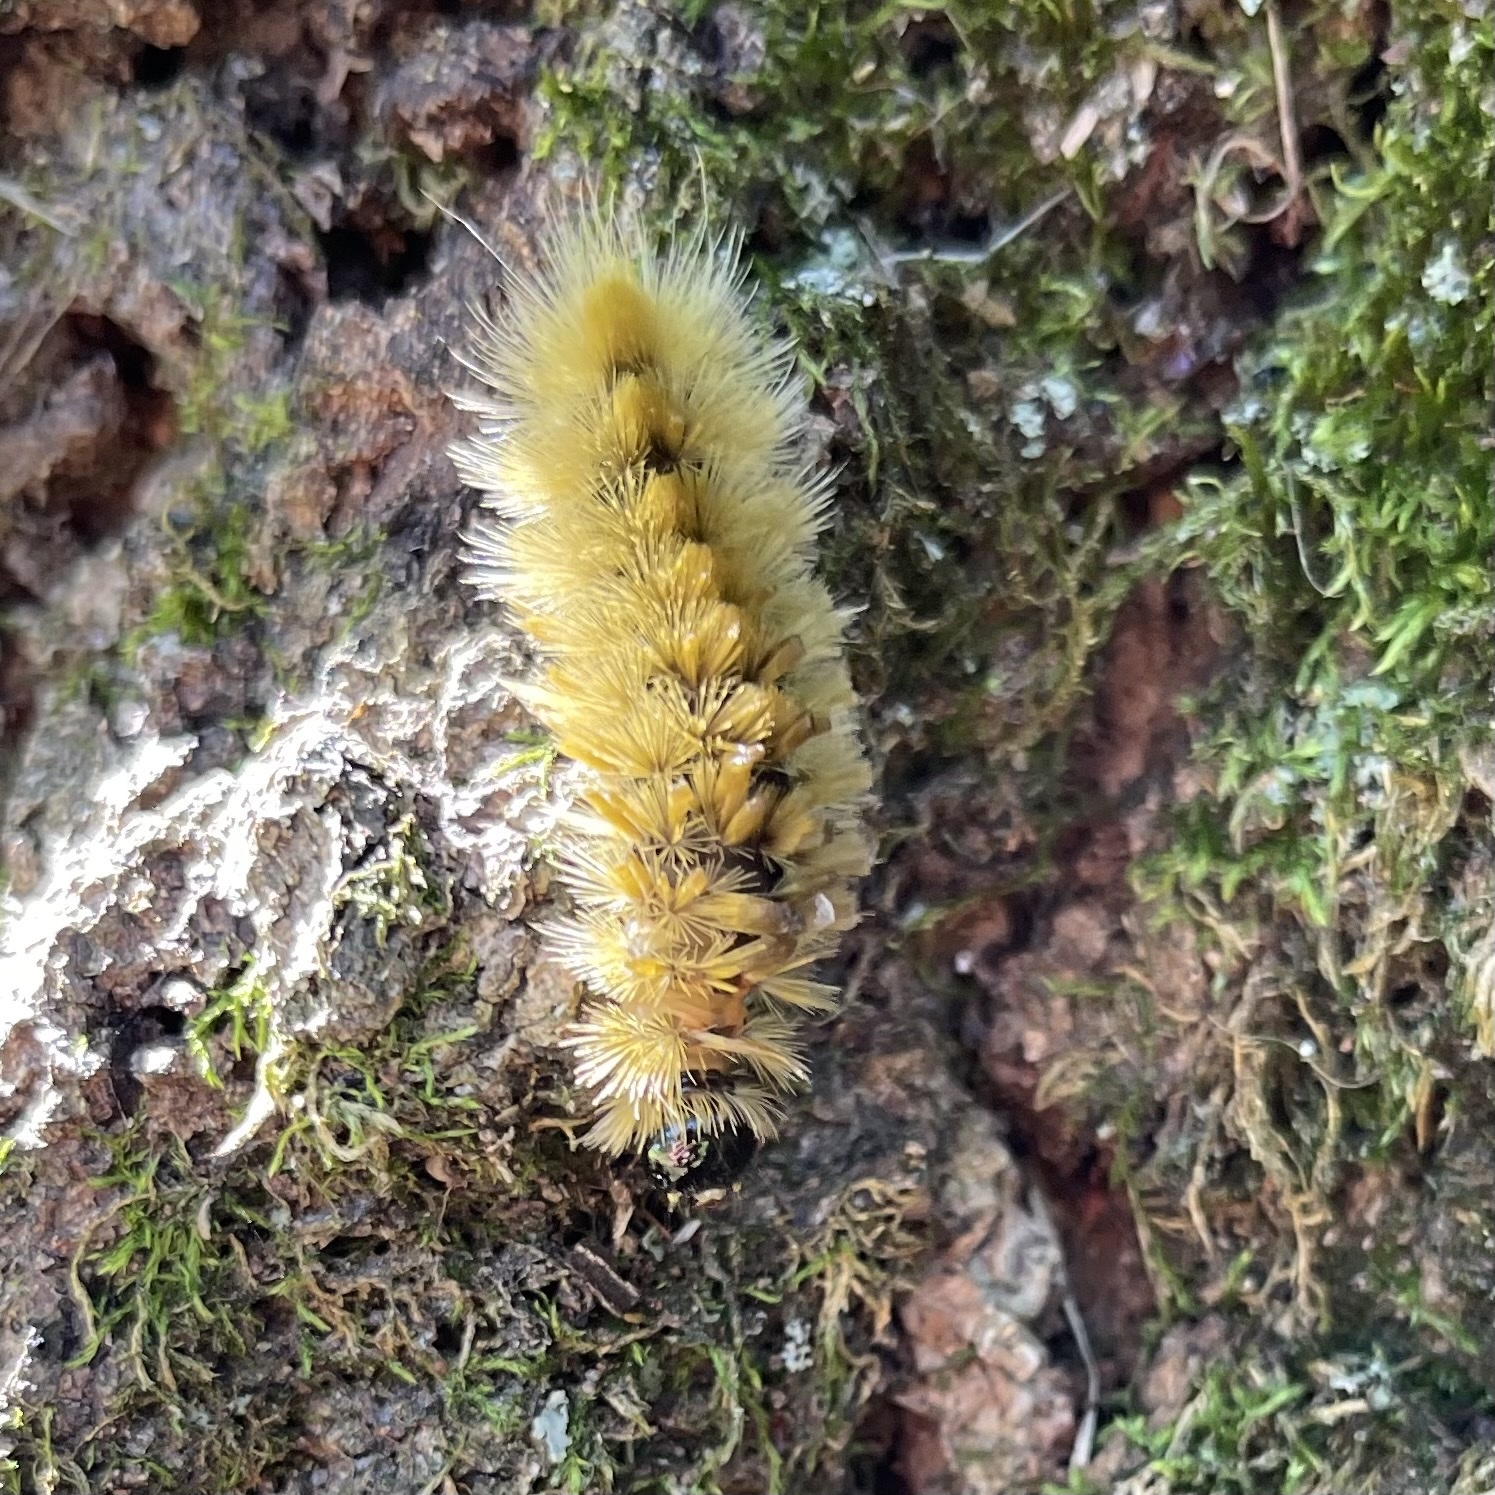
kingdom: Animalia
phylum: Arthropoda
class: Insecta
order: Lepidoptera
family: Erebidae
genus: Halysidota
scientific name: Halysidota tessellaris
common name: Banded tussock moth
